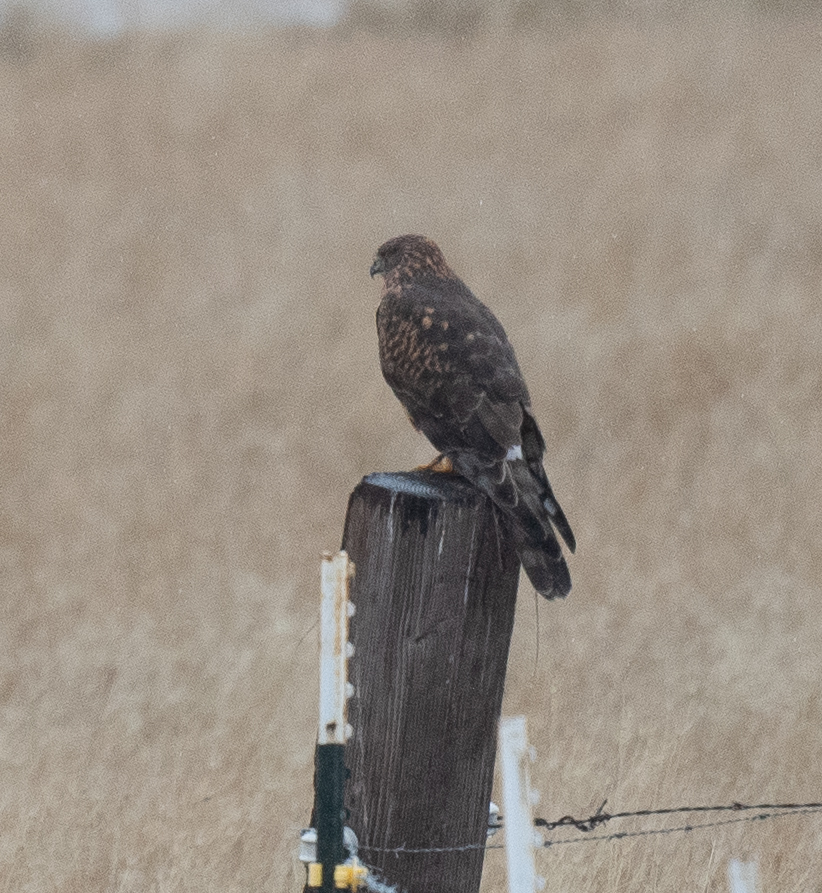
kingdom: Animalia
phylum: Chordata
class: Aves
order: Accipitriformes
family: Accipitridae
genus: Circus
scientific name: Circus cyaneus
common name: Hen harrier
